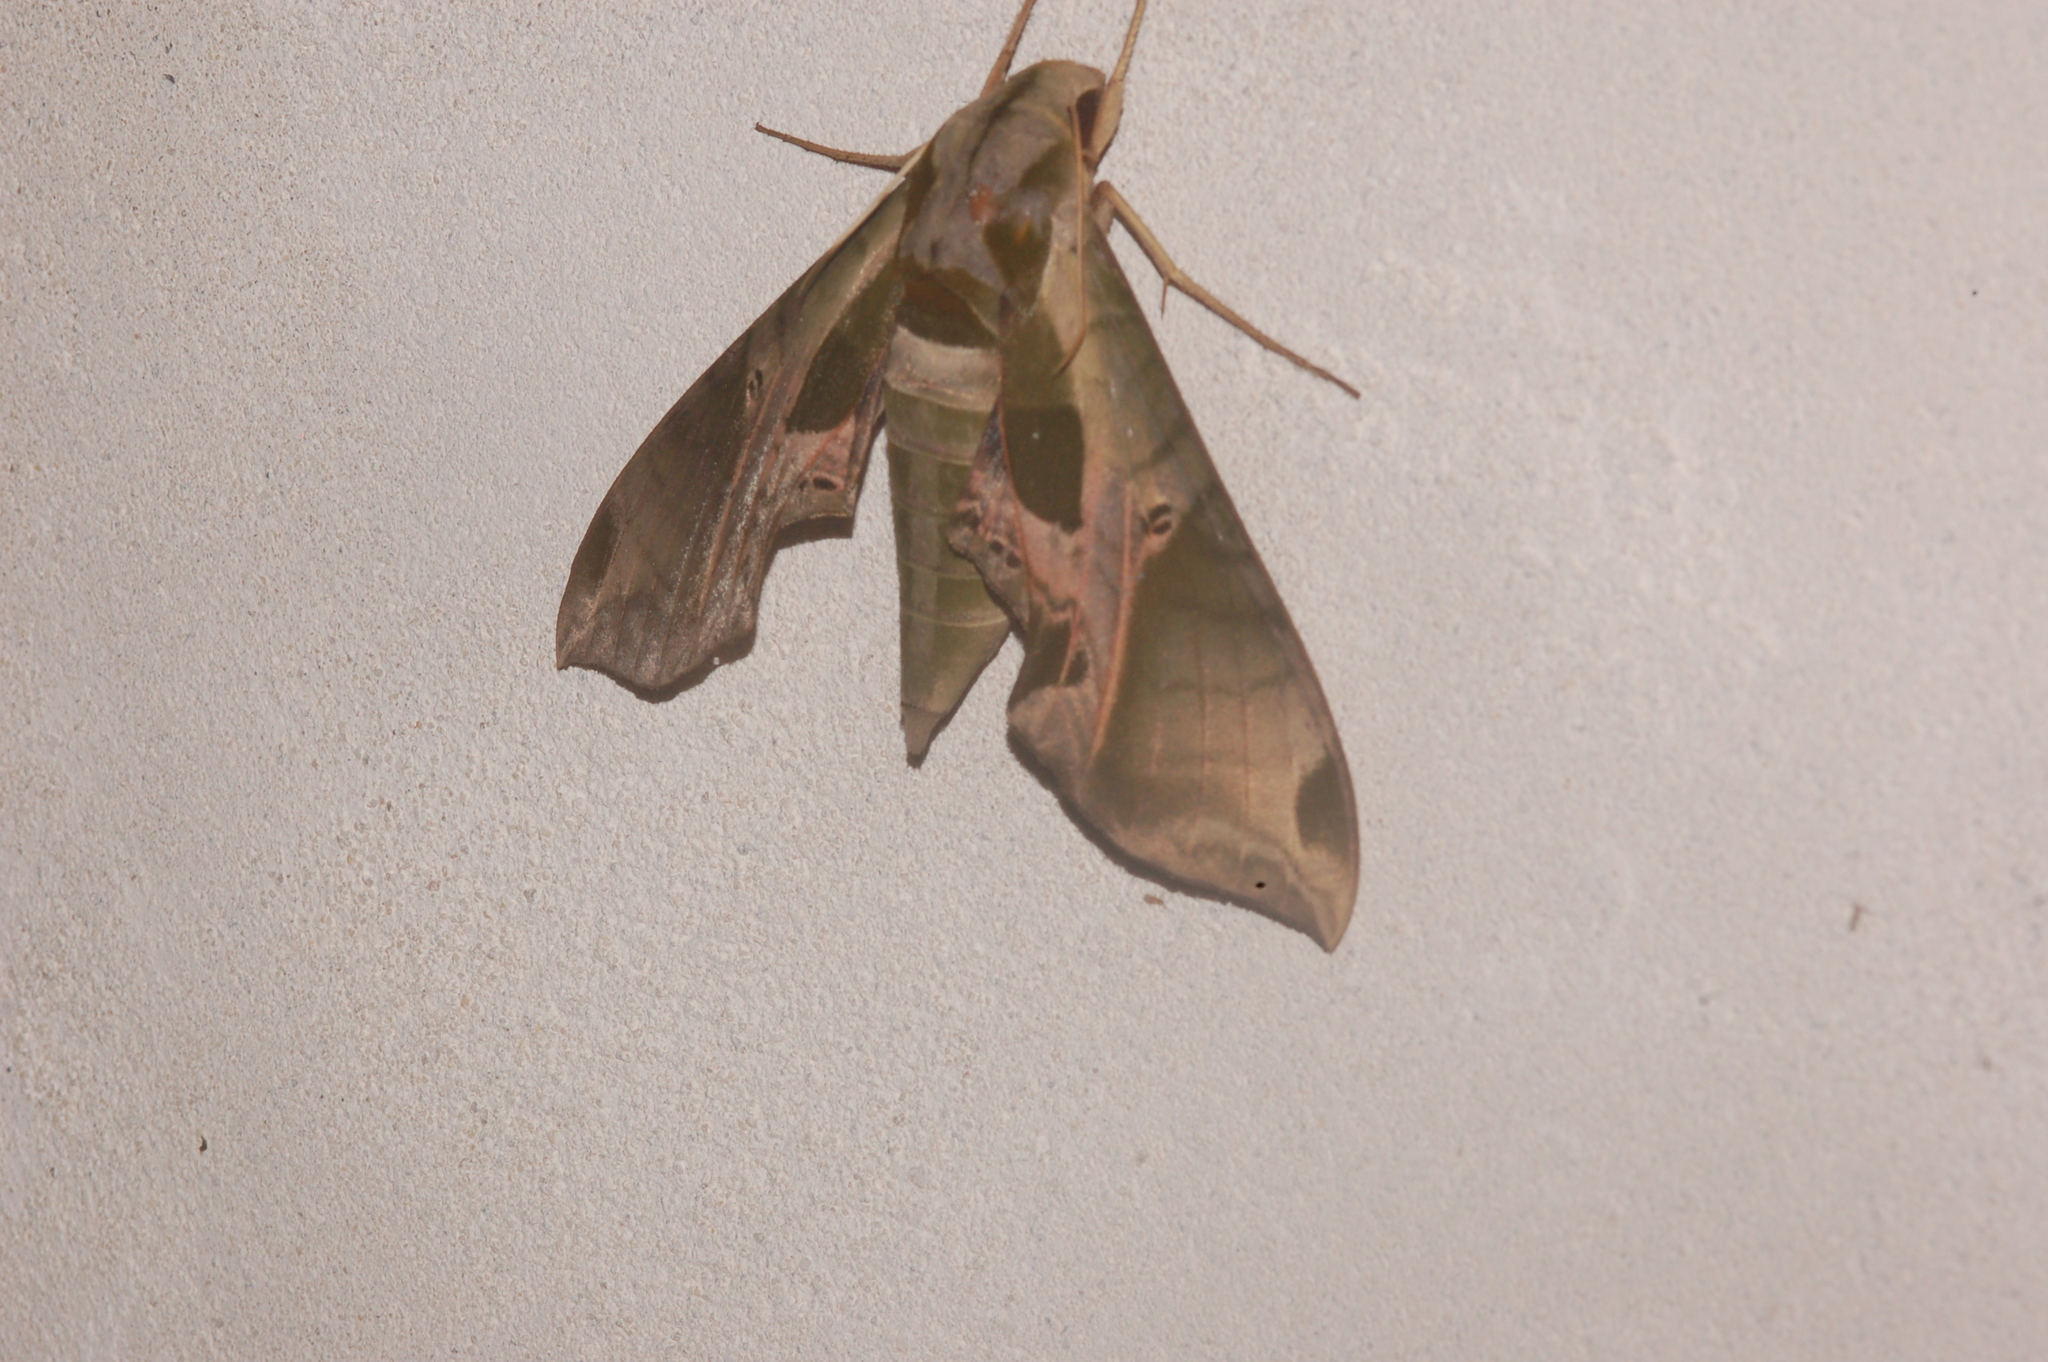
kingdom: Animalia
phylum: Arthropoda
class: Insecta
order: Lepidoptera
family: Sphingidae
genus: Eumorpha
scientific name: Eumorpha pandorus
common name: Pandora sphinx
